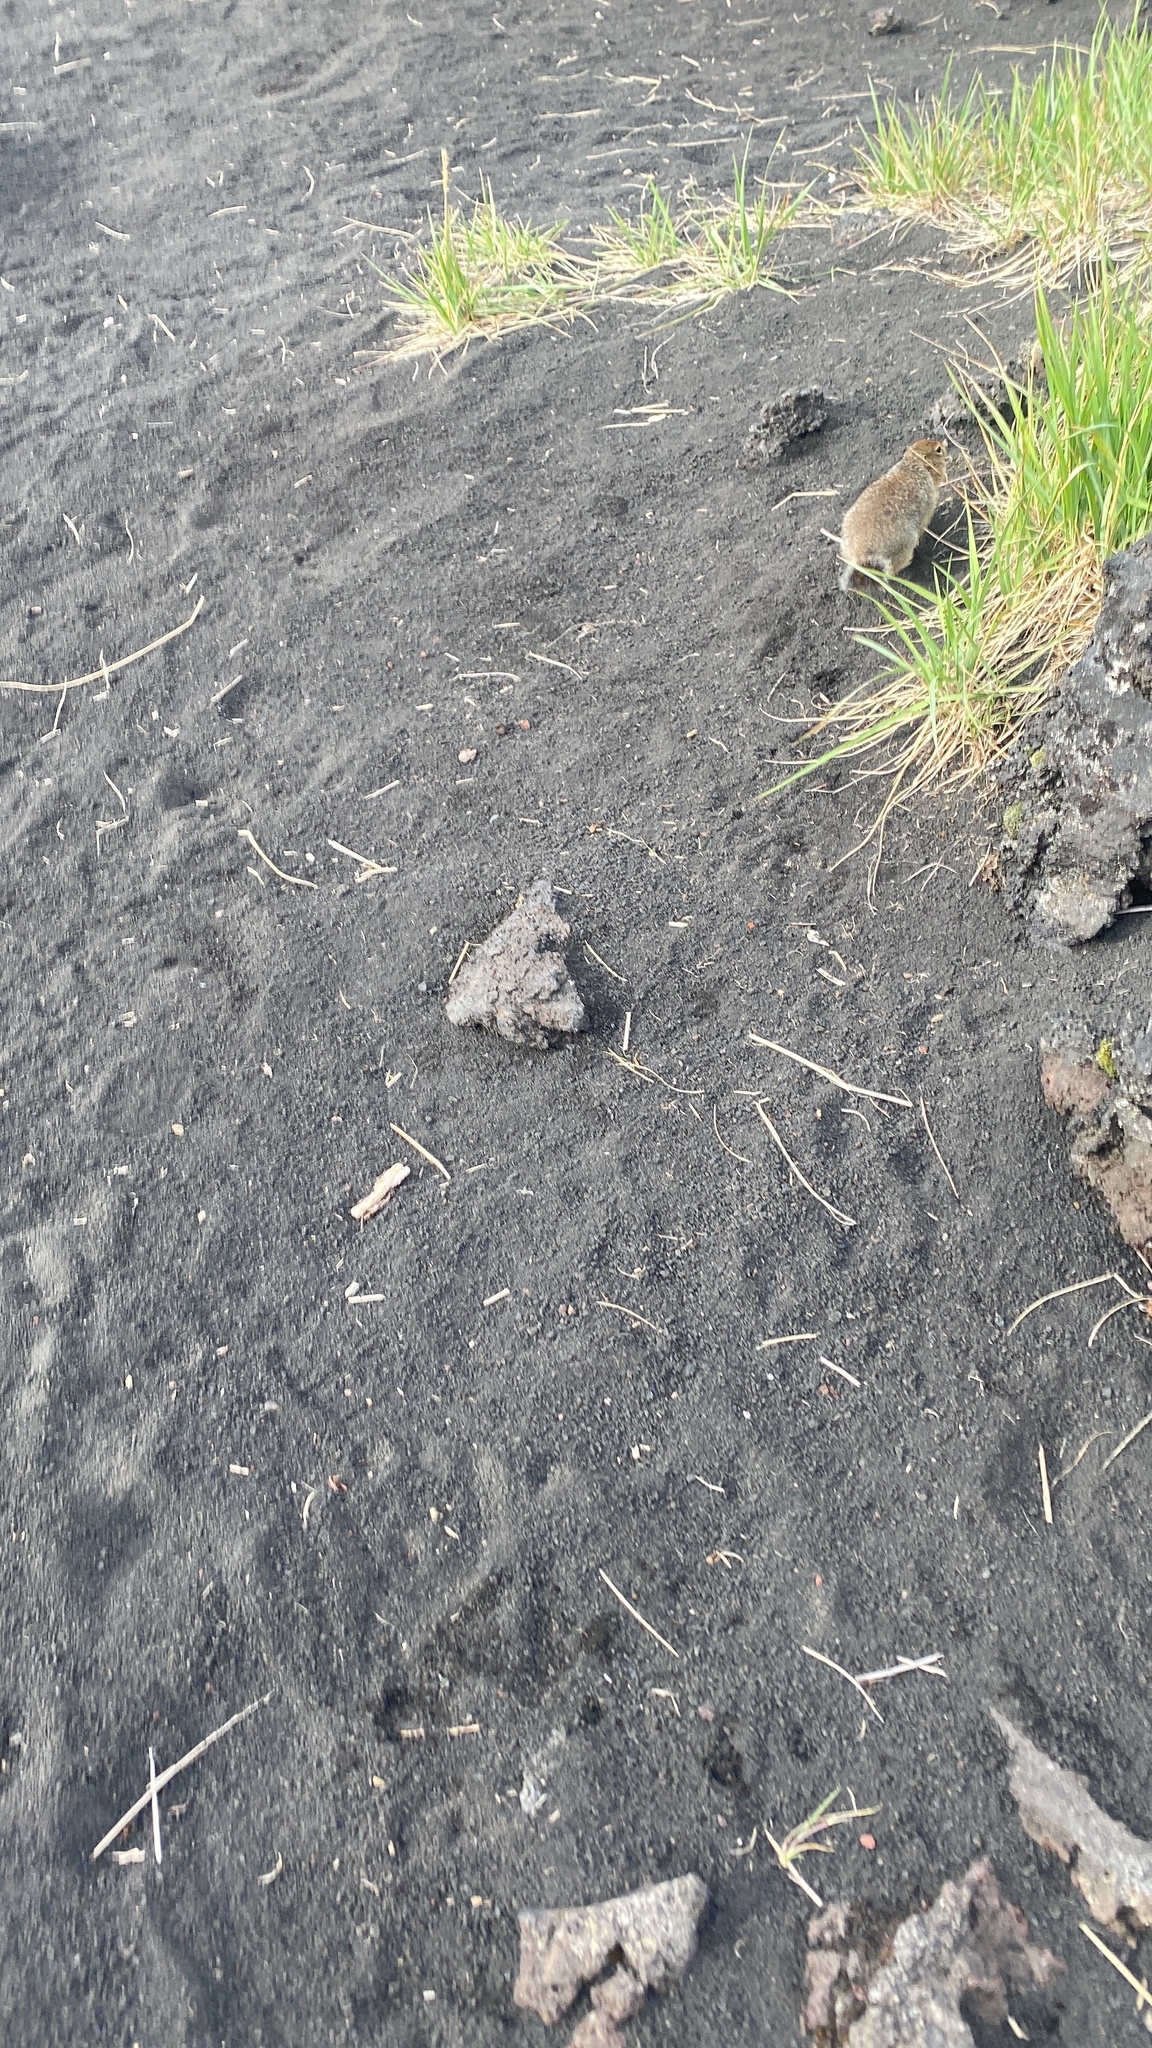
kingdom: Animalia
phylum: Chordata
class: Mammalia
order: Rodentia
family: Sciuridae
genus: Urocitellus
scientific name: Urocitellus parryii
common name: Arctic ground squirrel
